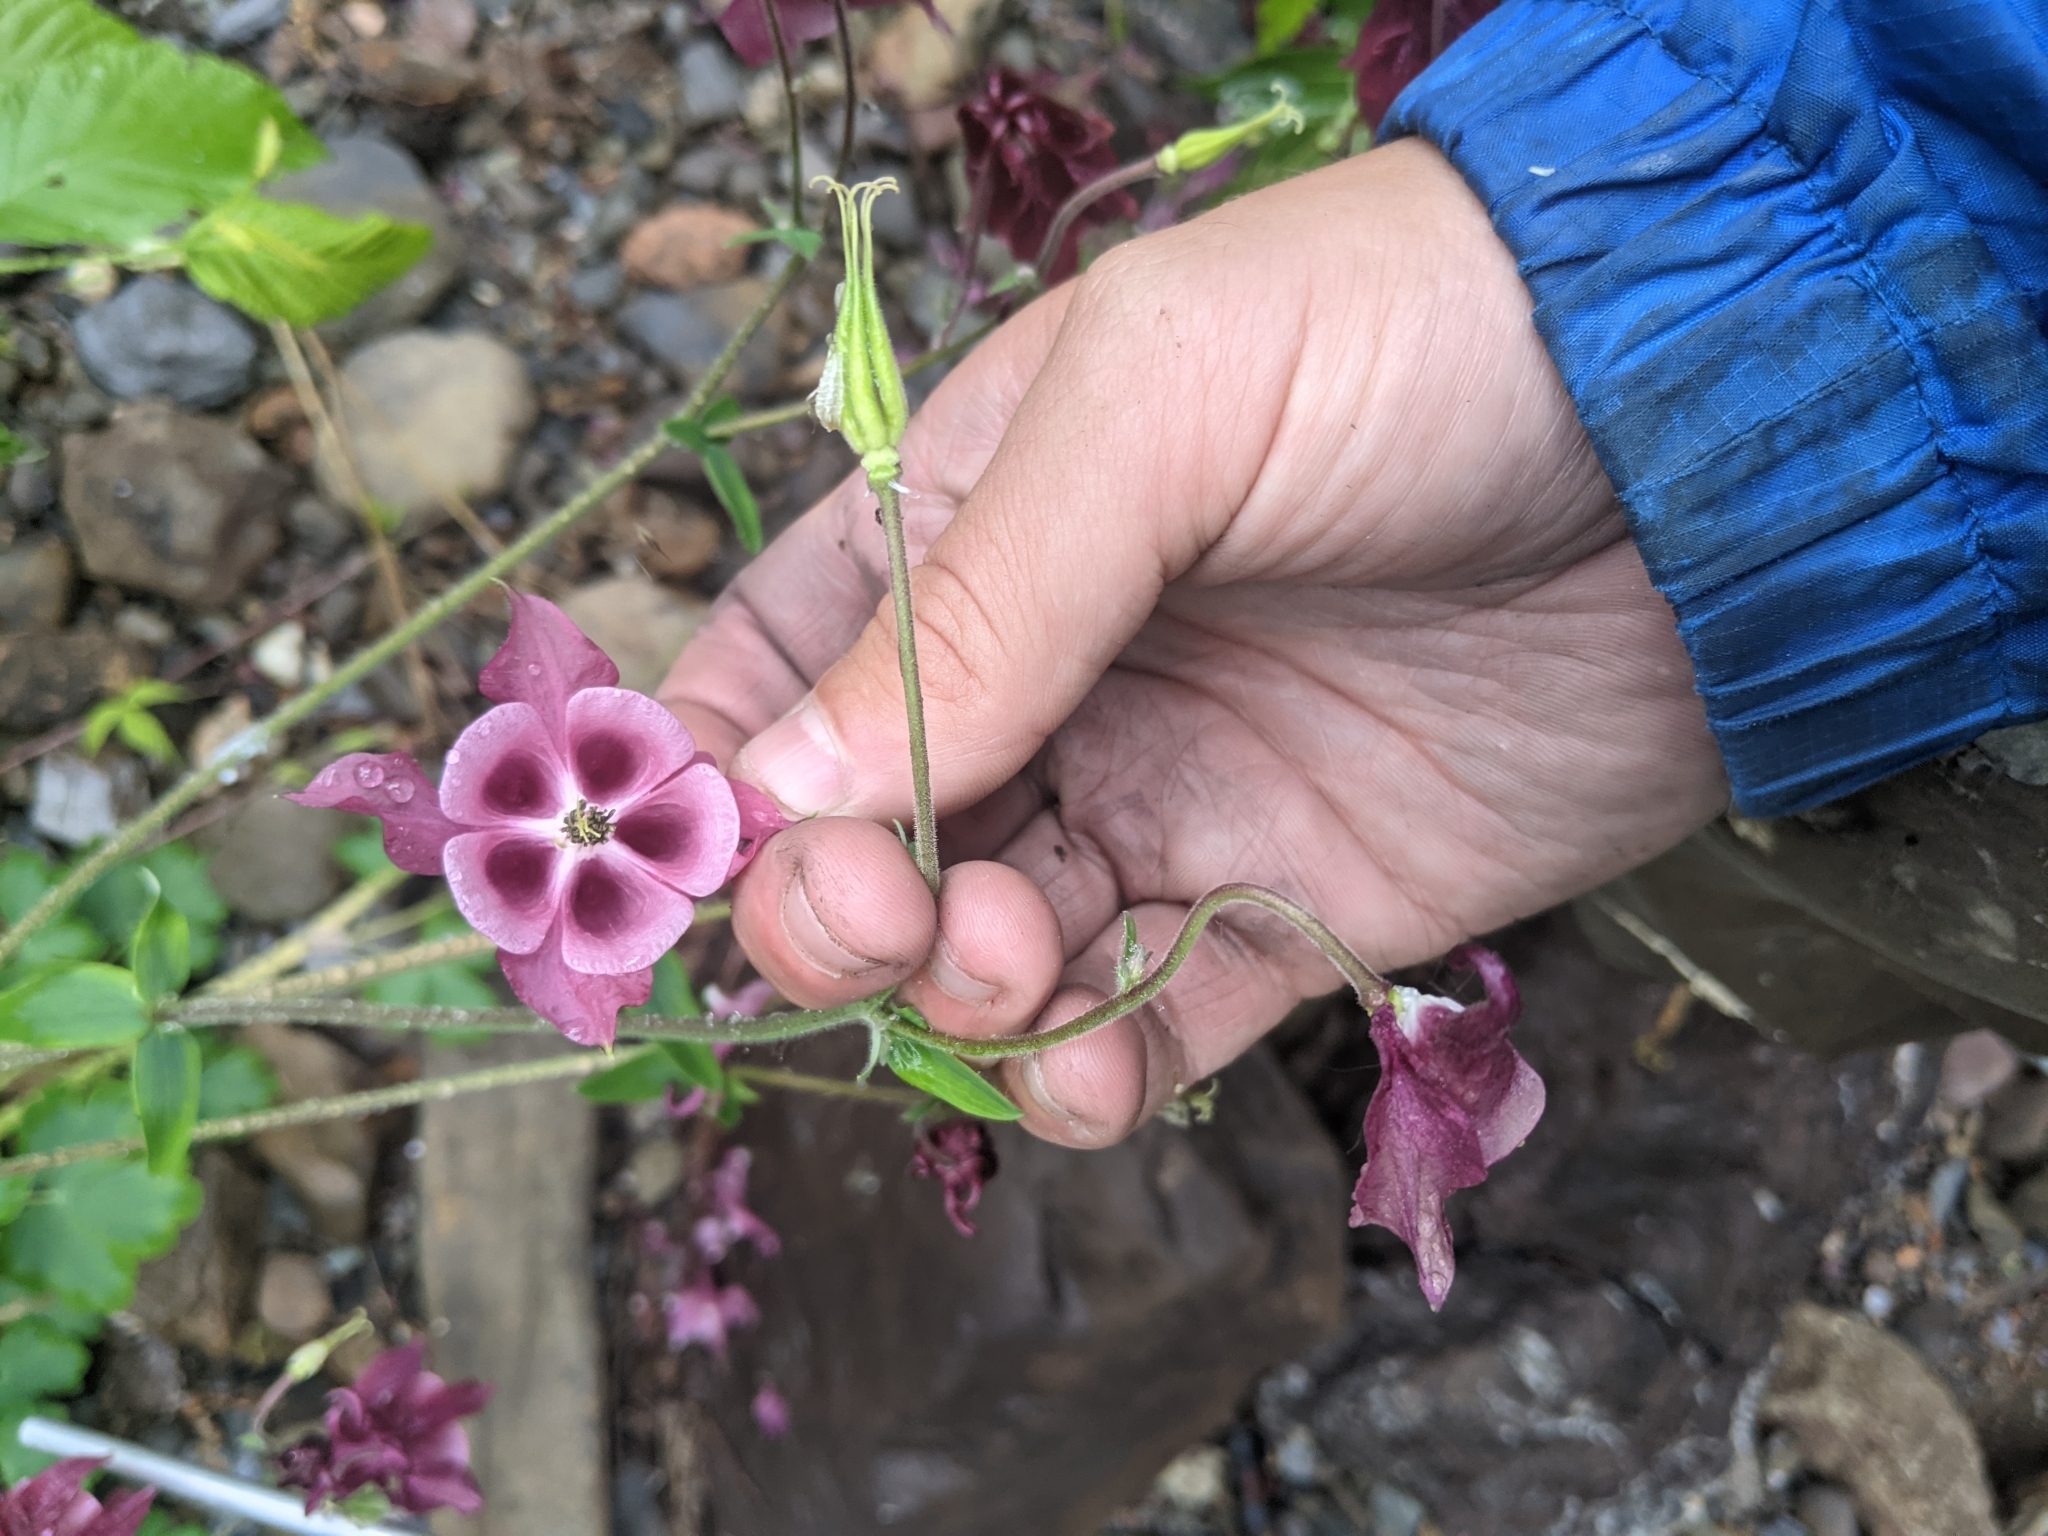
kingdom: Plantae
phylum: Tracheophyta
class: Magnoliopsida
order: Ranunculales
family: Ranunculaceae
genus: Aquilegia
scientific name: Aquilegia vulgaris
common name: Columbine
